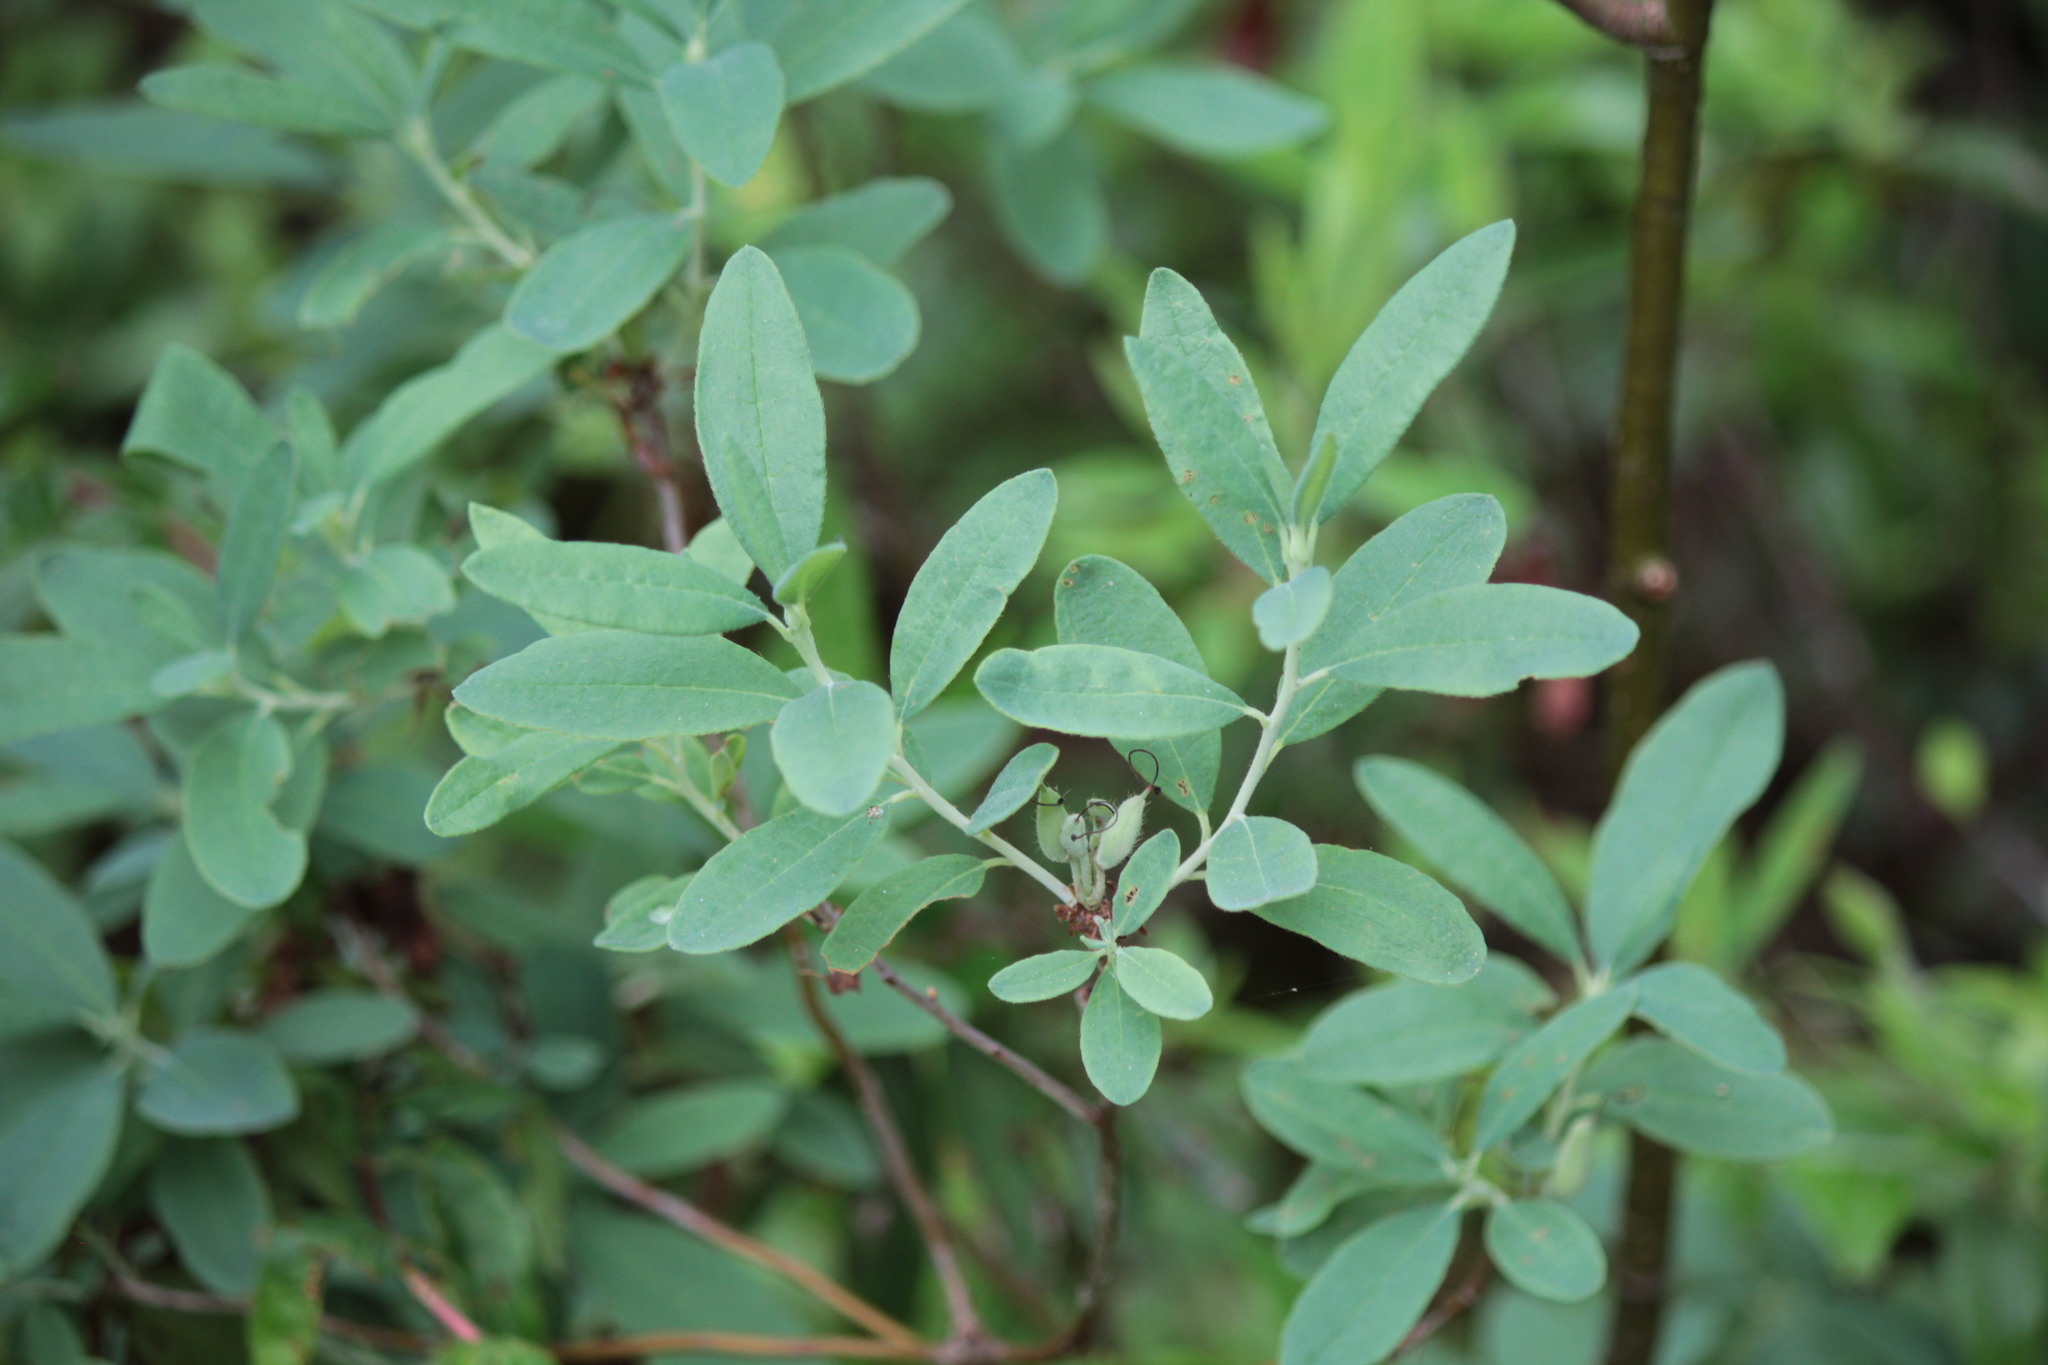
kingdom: Plantae
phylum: Tracheophyta
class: Magnoliopsida
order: Ericales
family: Ericaceae
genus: Rhododendron
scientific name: Rhododendron canadense
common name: Rhodora
